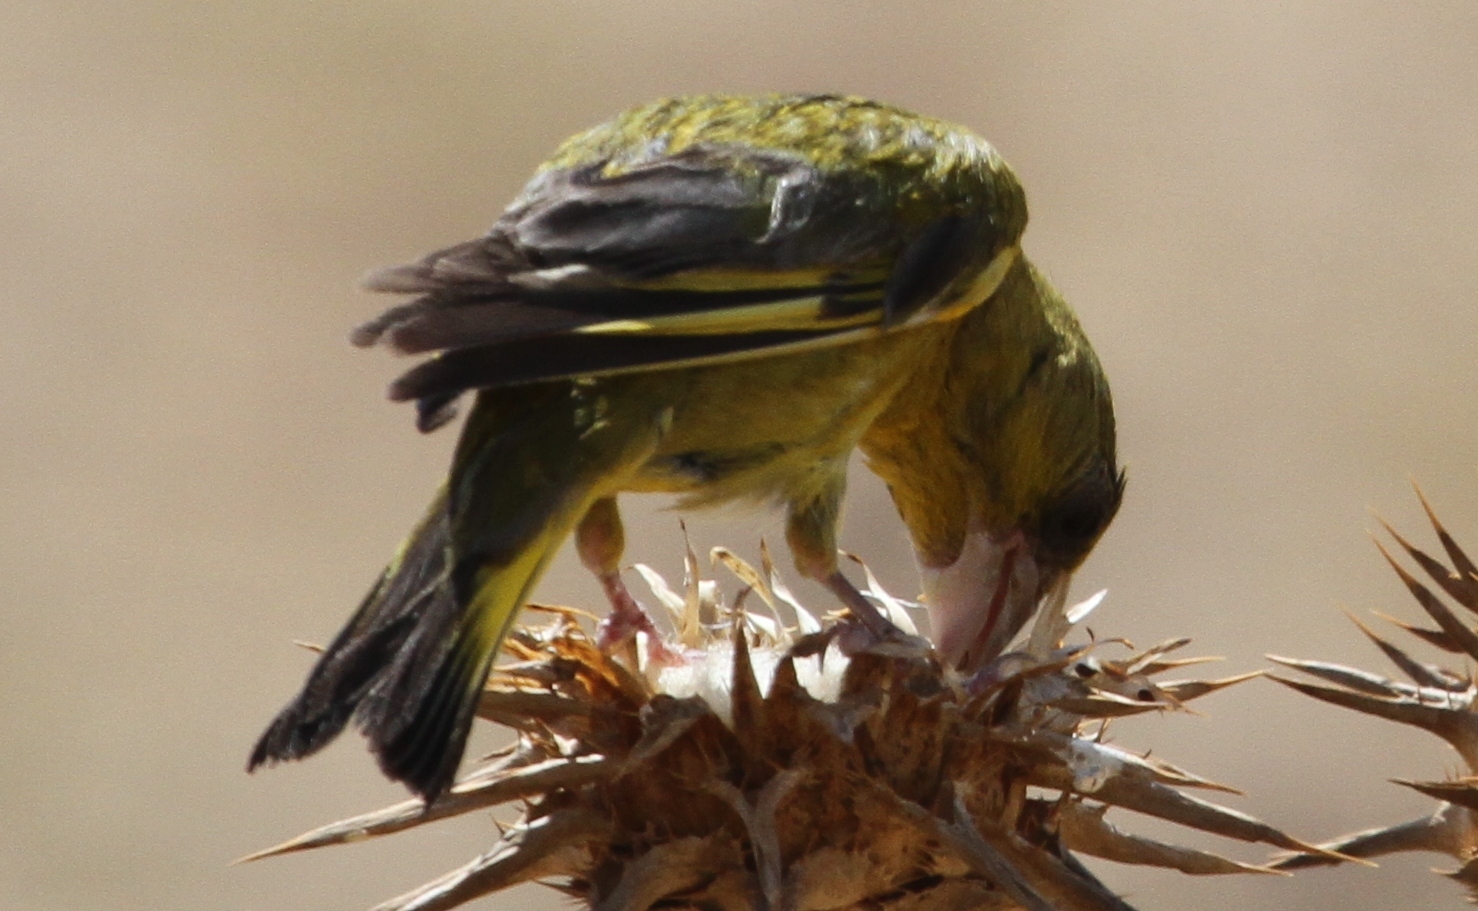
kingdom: Plantae
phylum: Tracheophyta
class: Liliopsida
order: Poales
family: Poaceae
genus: Chloris
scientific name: Chloris chloris
